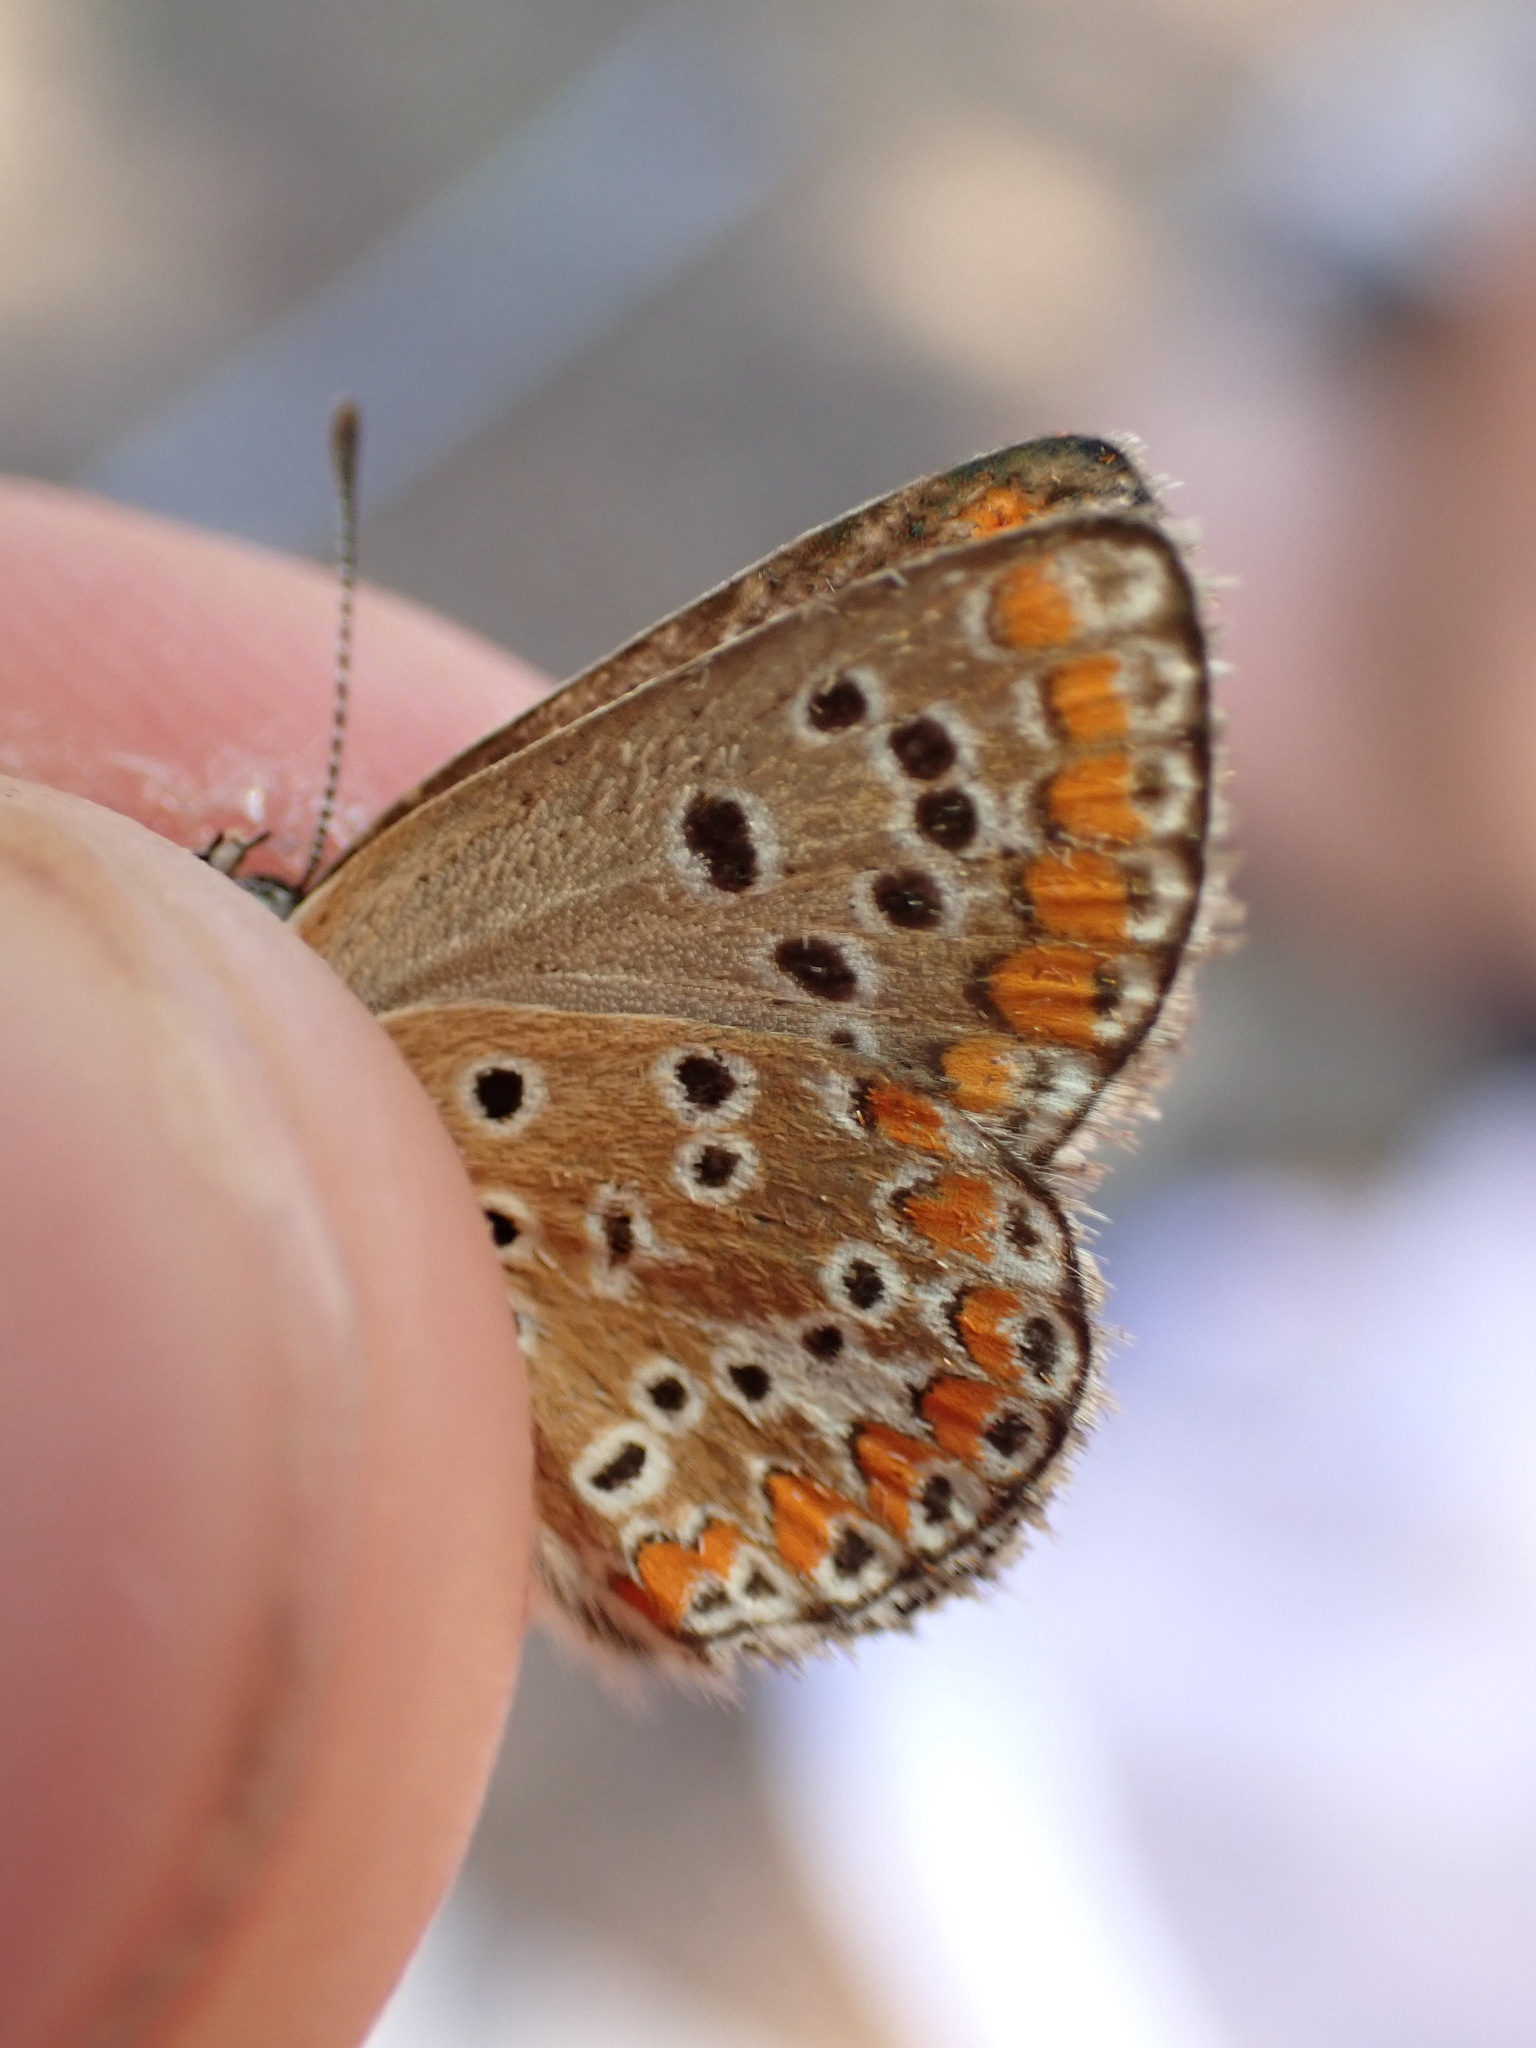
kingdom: Animalia
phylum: Arthropoda
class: Insecta
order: Lepidoptera
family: Lycaenidae
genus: Aricia
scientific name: Aricia agestis
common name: Brown argus
